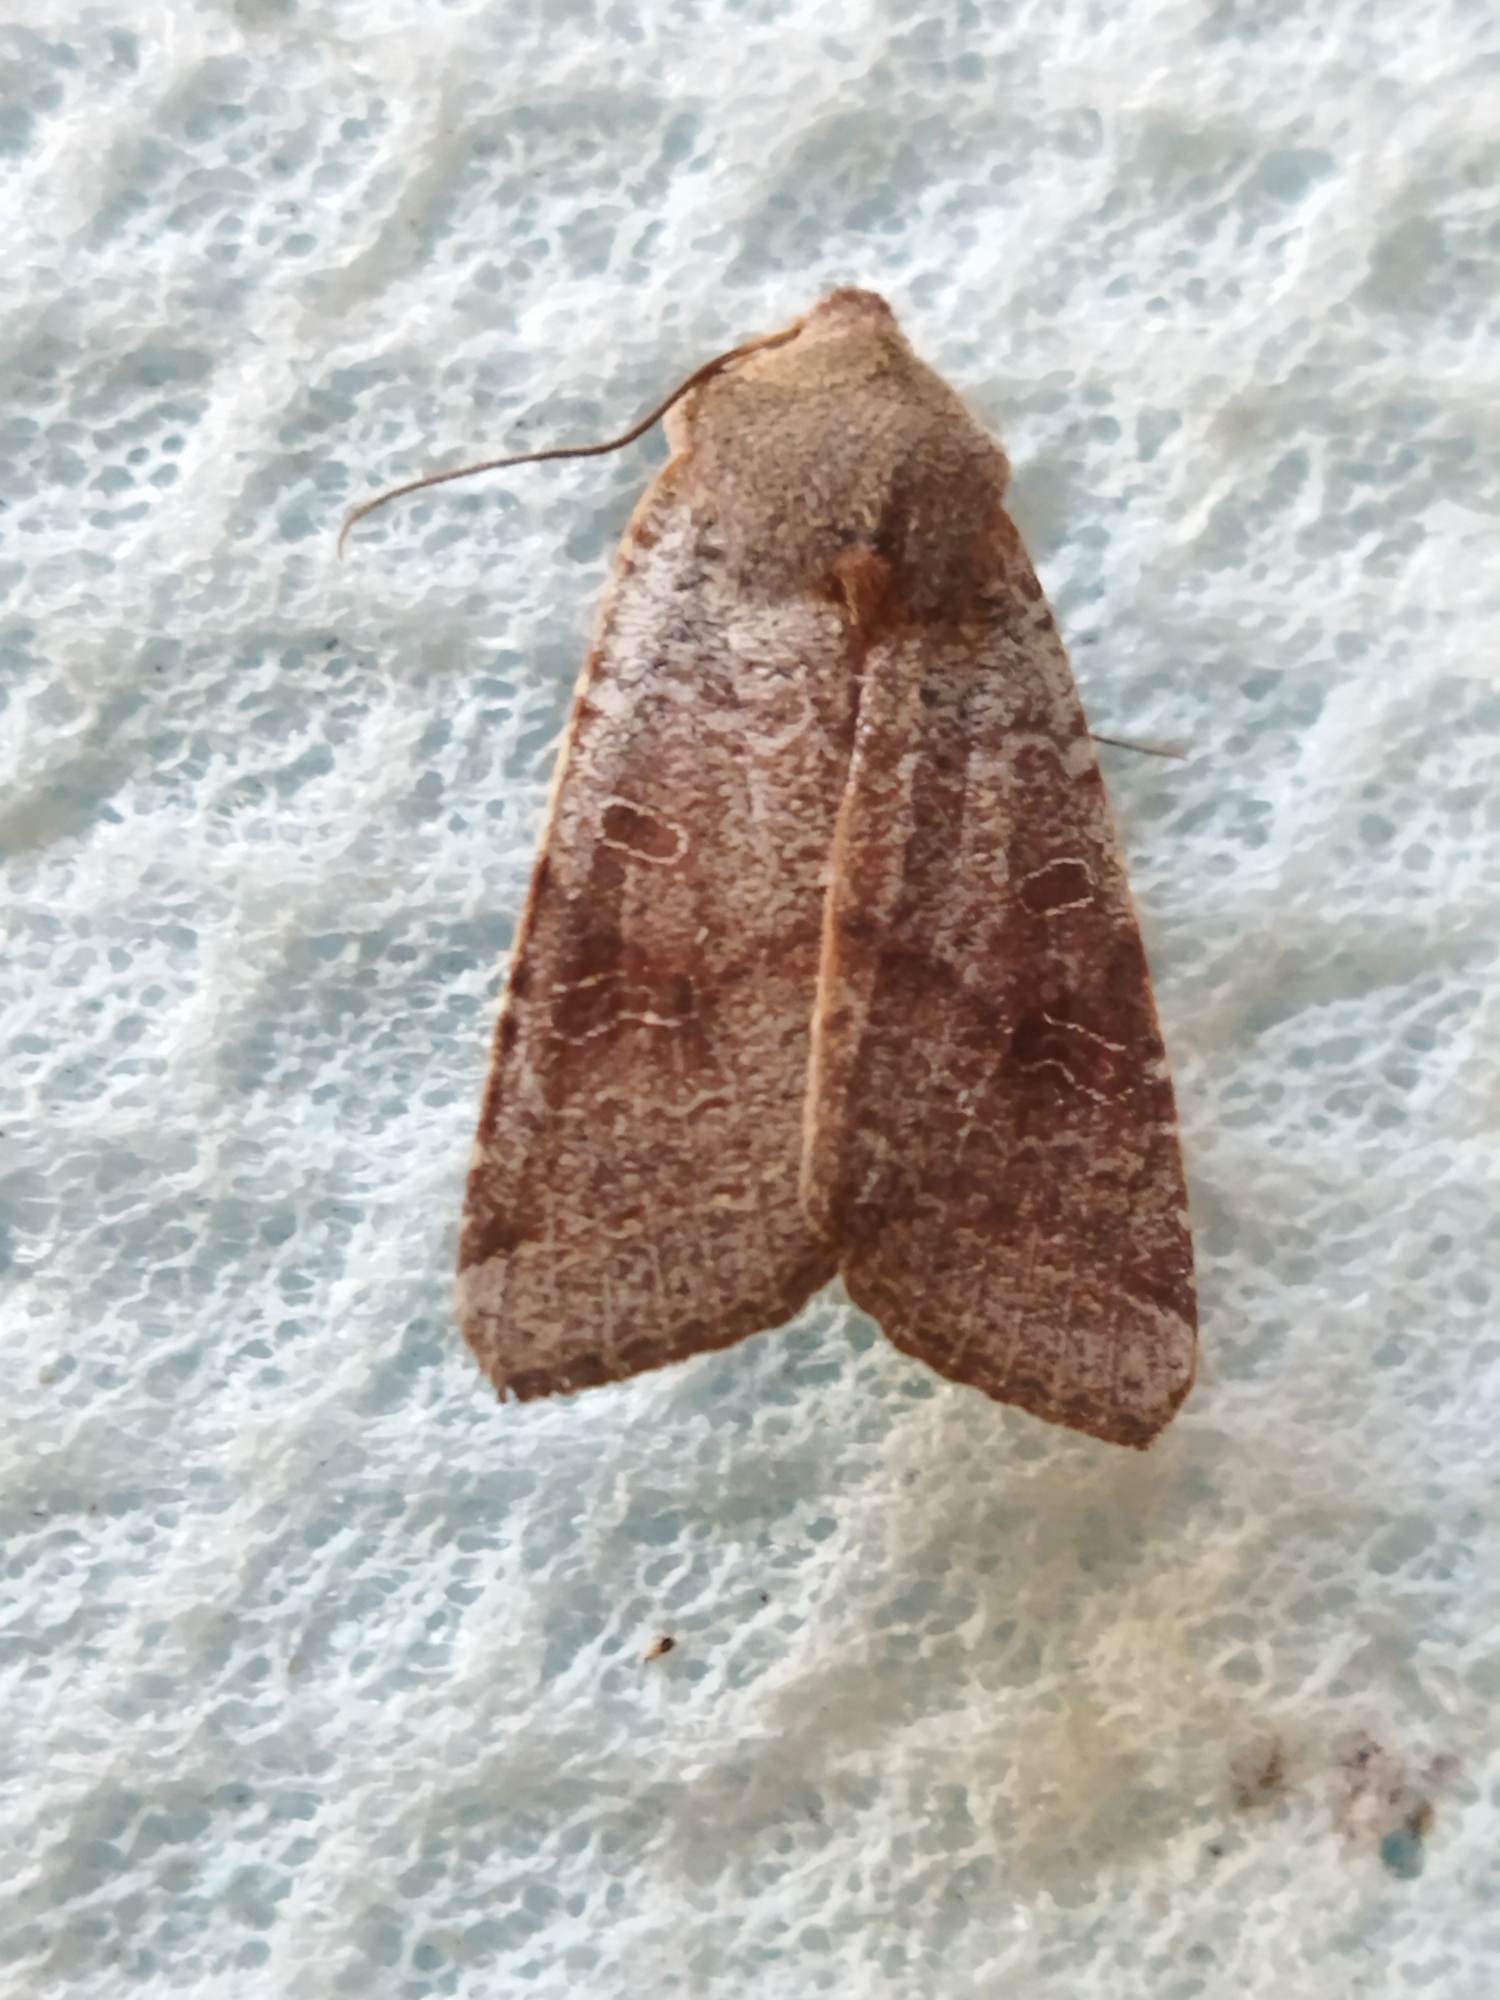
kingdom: Animalia
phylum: Arthropoda
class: Insecta
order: Lepidoptera
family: Noctuidae
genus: Agrochola
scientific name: Agrochola lychnidis
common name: Beaded chestnut
